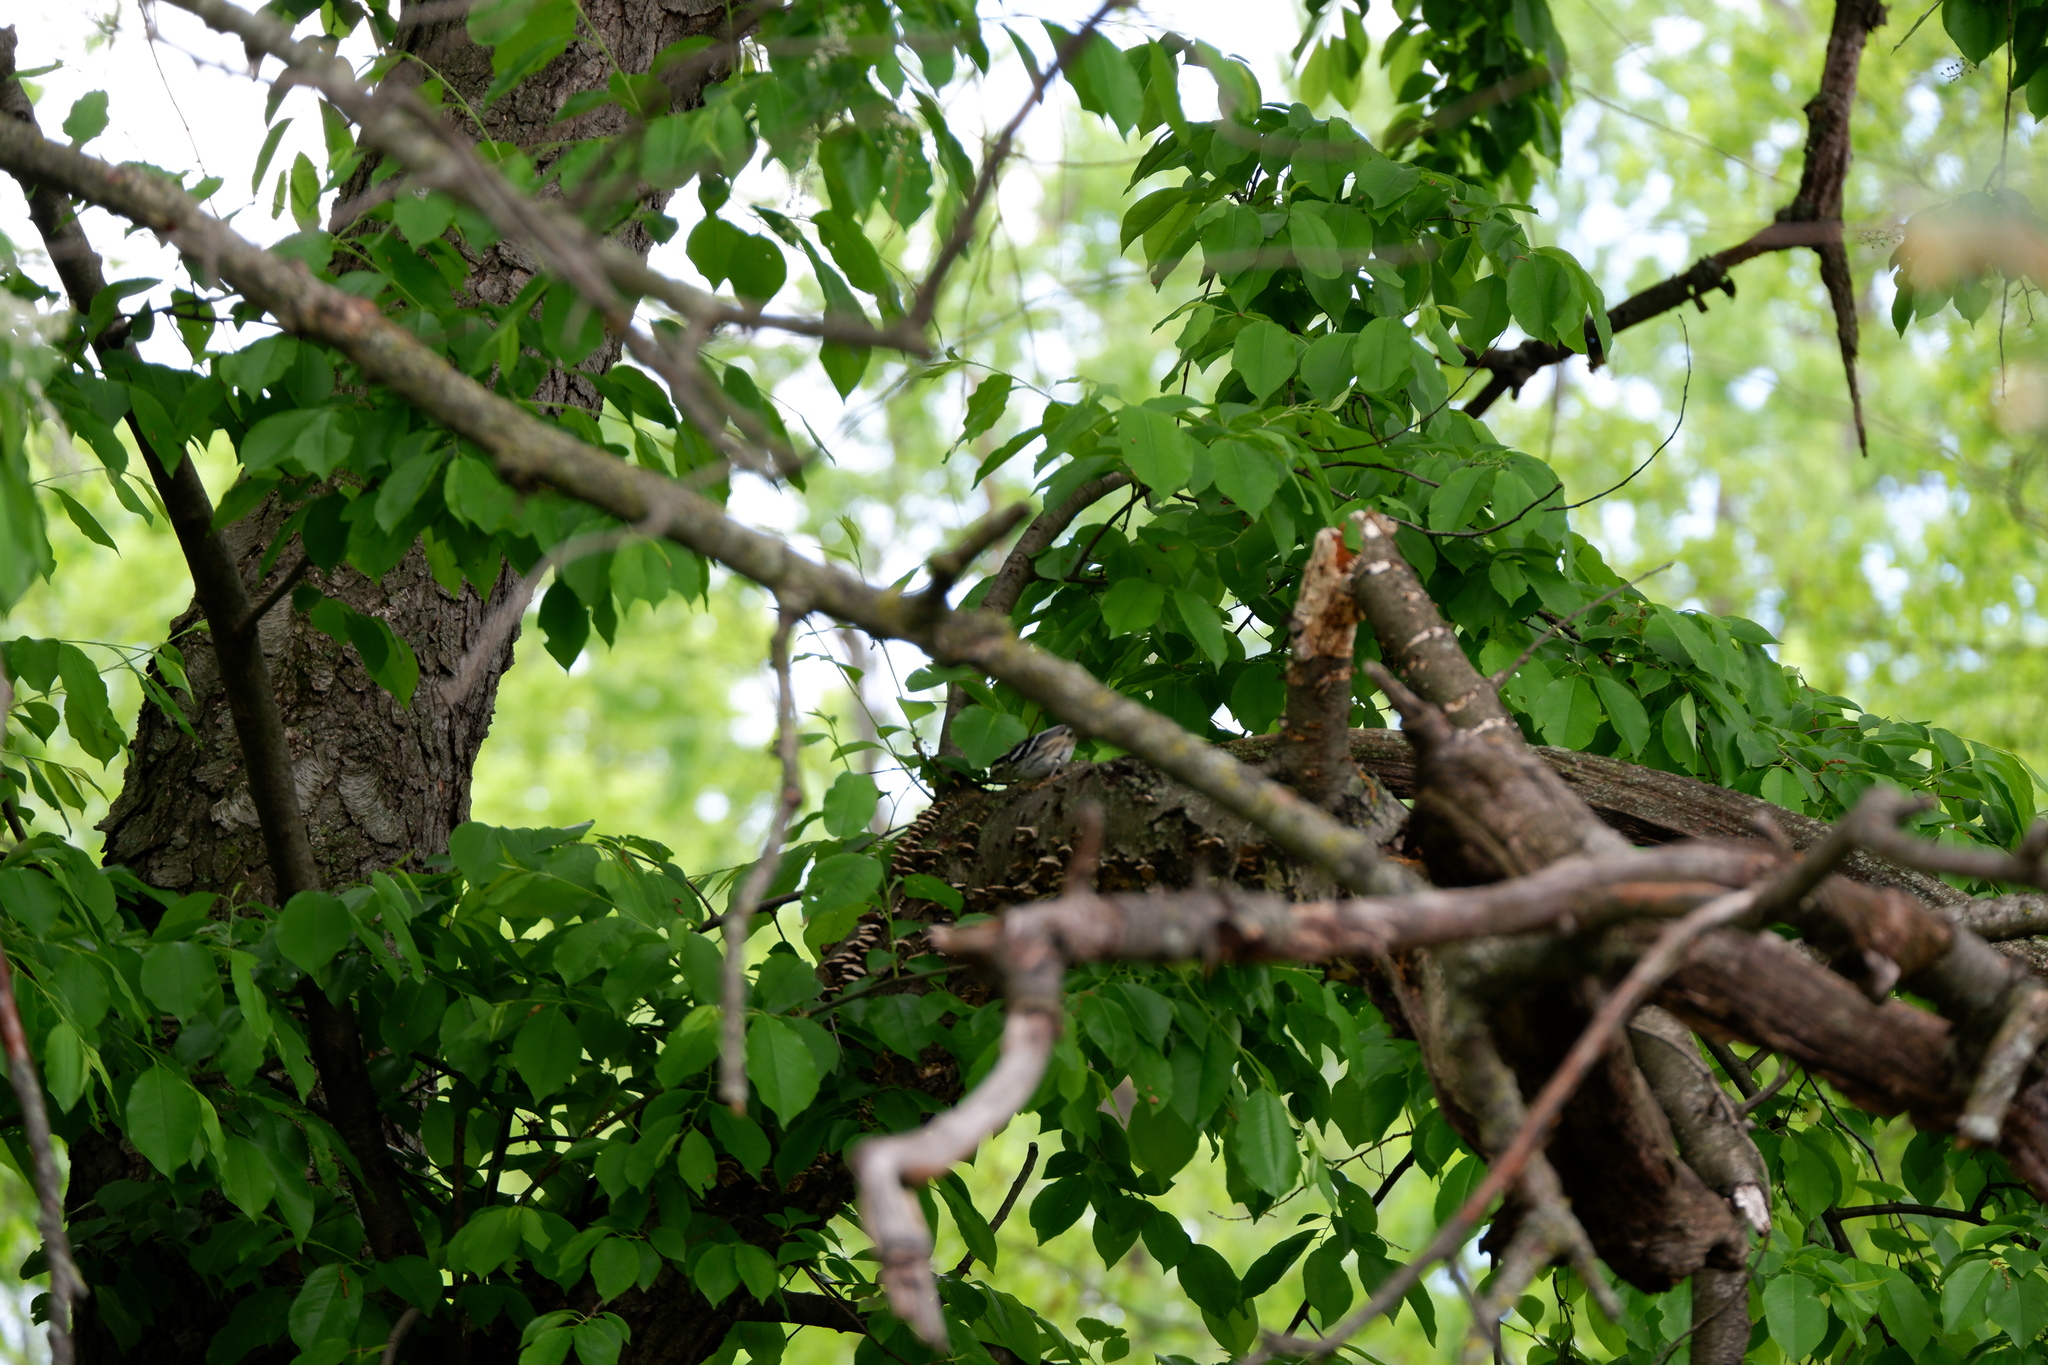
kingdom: Animalia
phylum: Chordata
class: Aves
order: Passeriformes
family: Parulidae
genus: Mniotilta
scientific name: Mniotilta varia
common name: Black-and-white warbler
